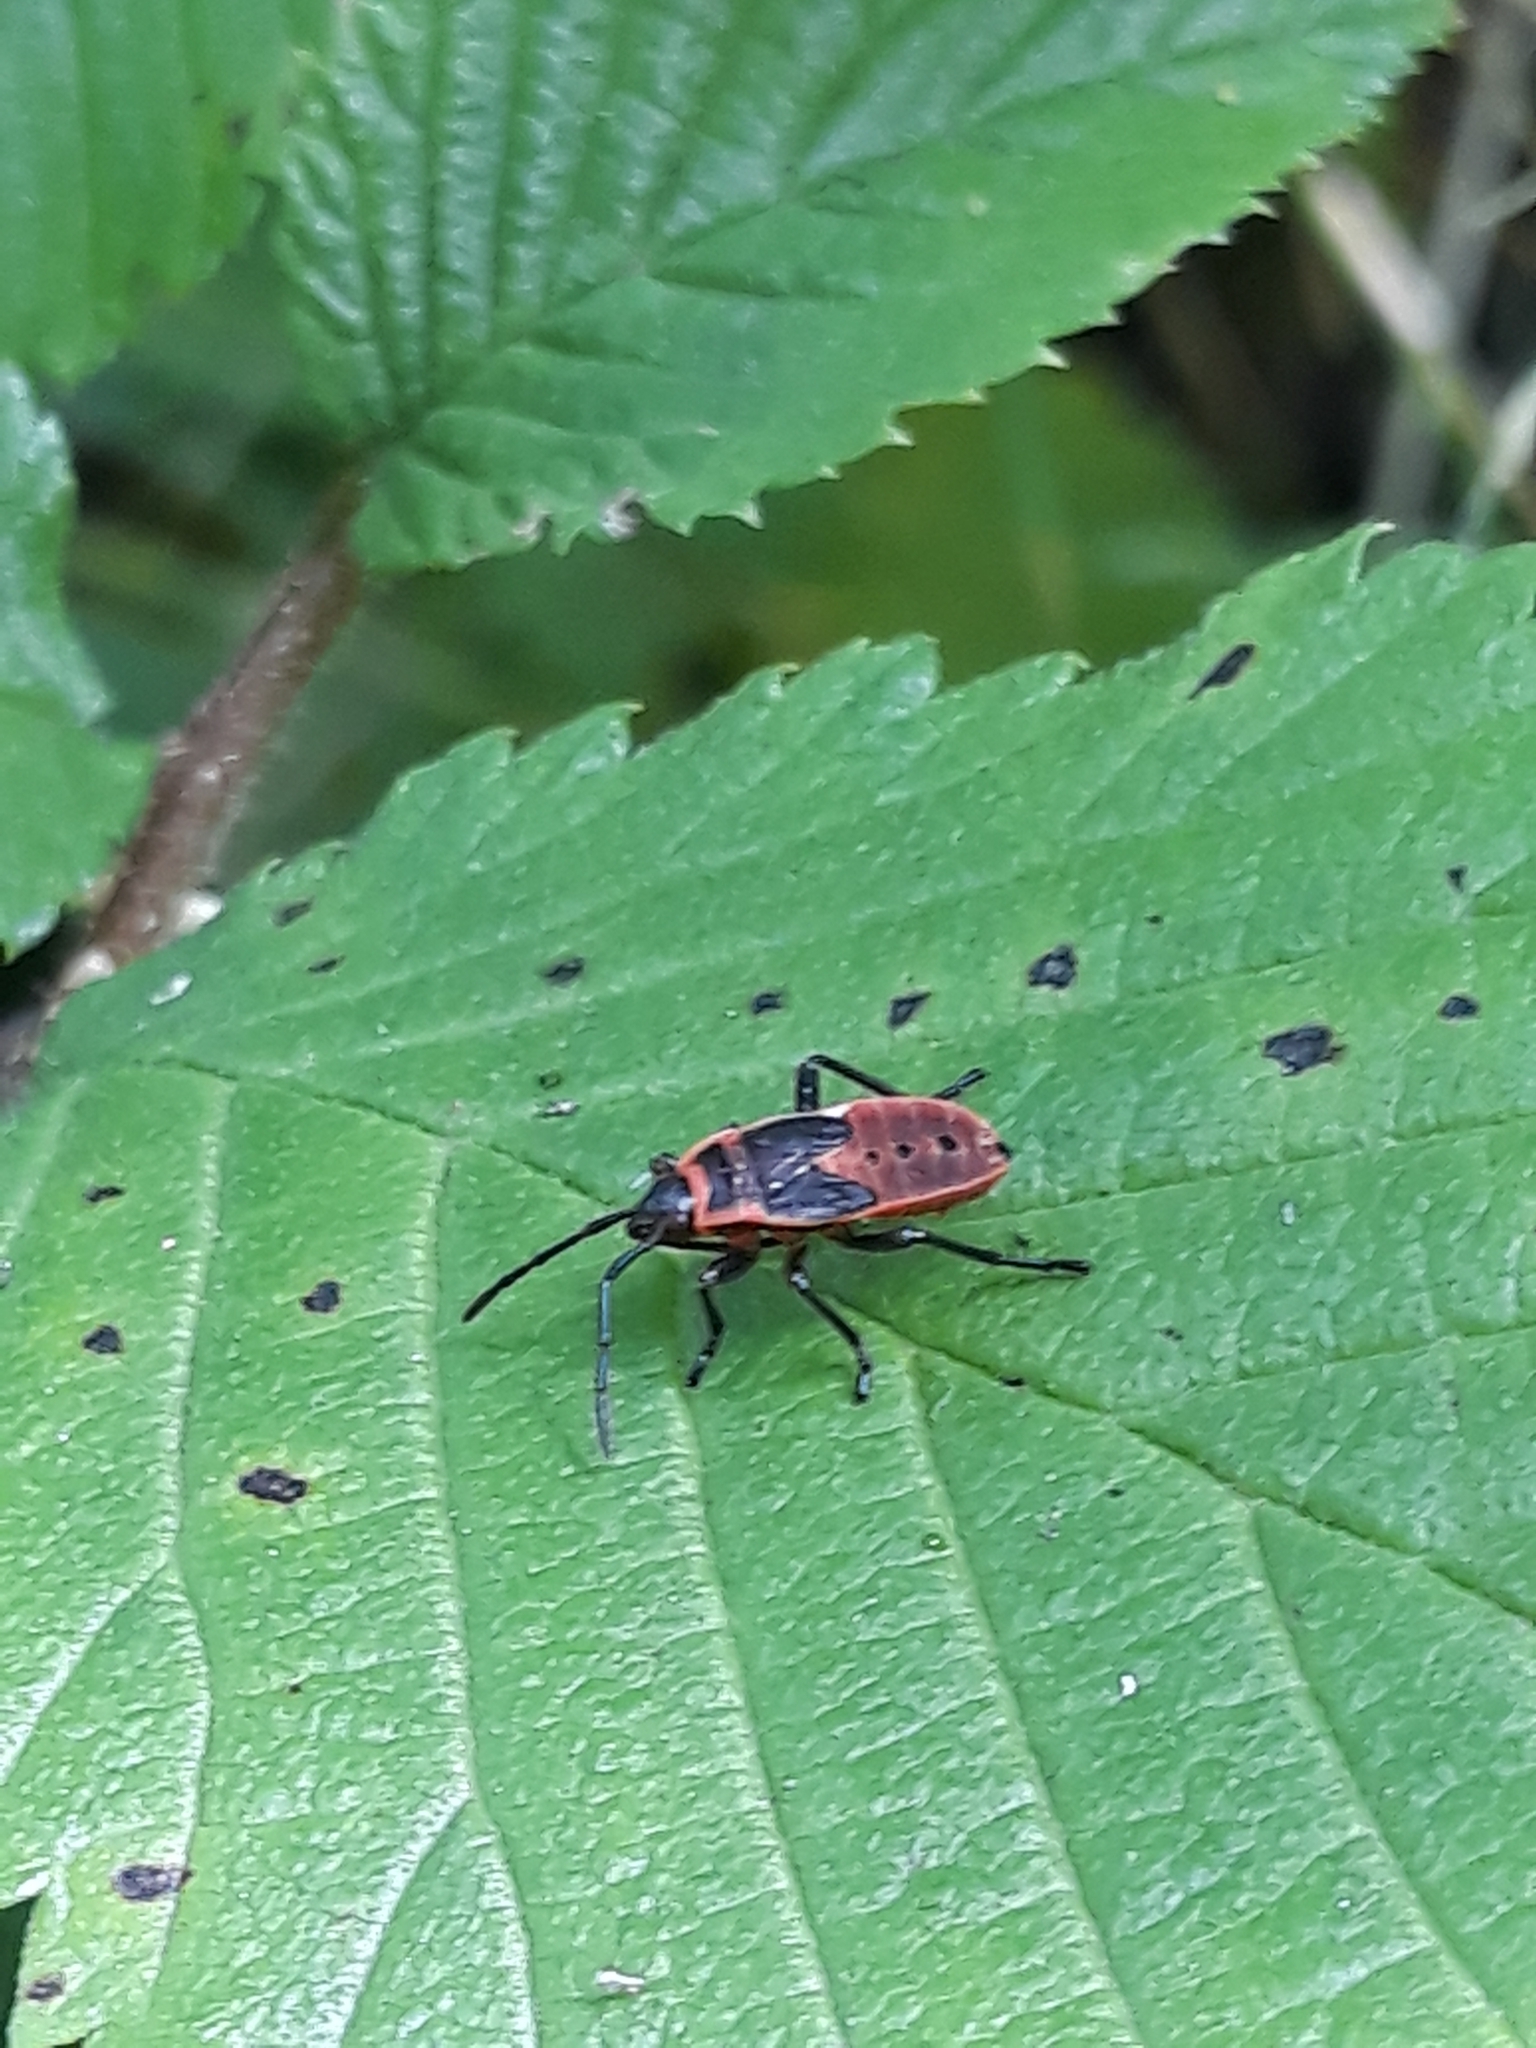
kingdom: Animalia
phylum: Arthropoda
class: Insecta
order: Hemiptera
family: Pyrrhocoridae
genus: Pyrrhocoris
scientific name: Pyrrhocoris apterus
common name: Firebug
